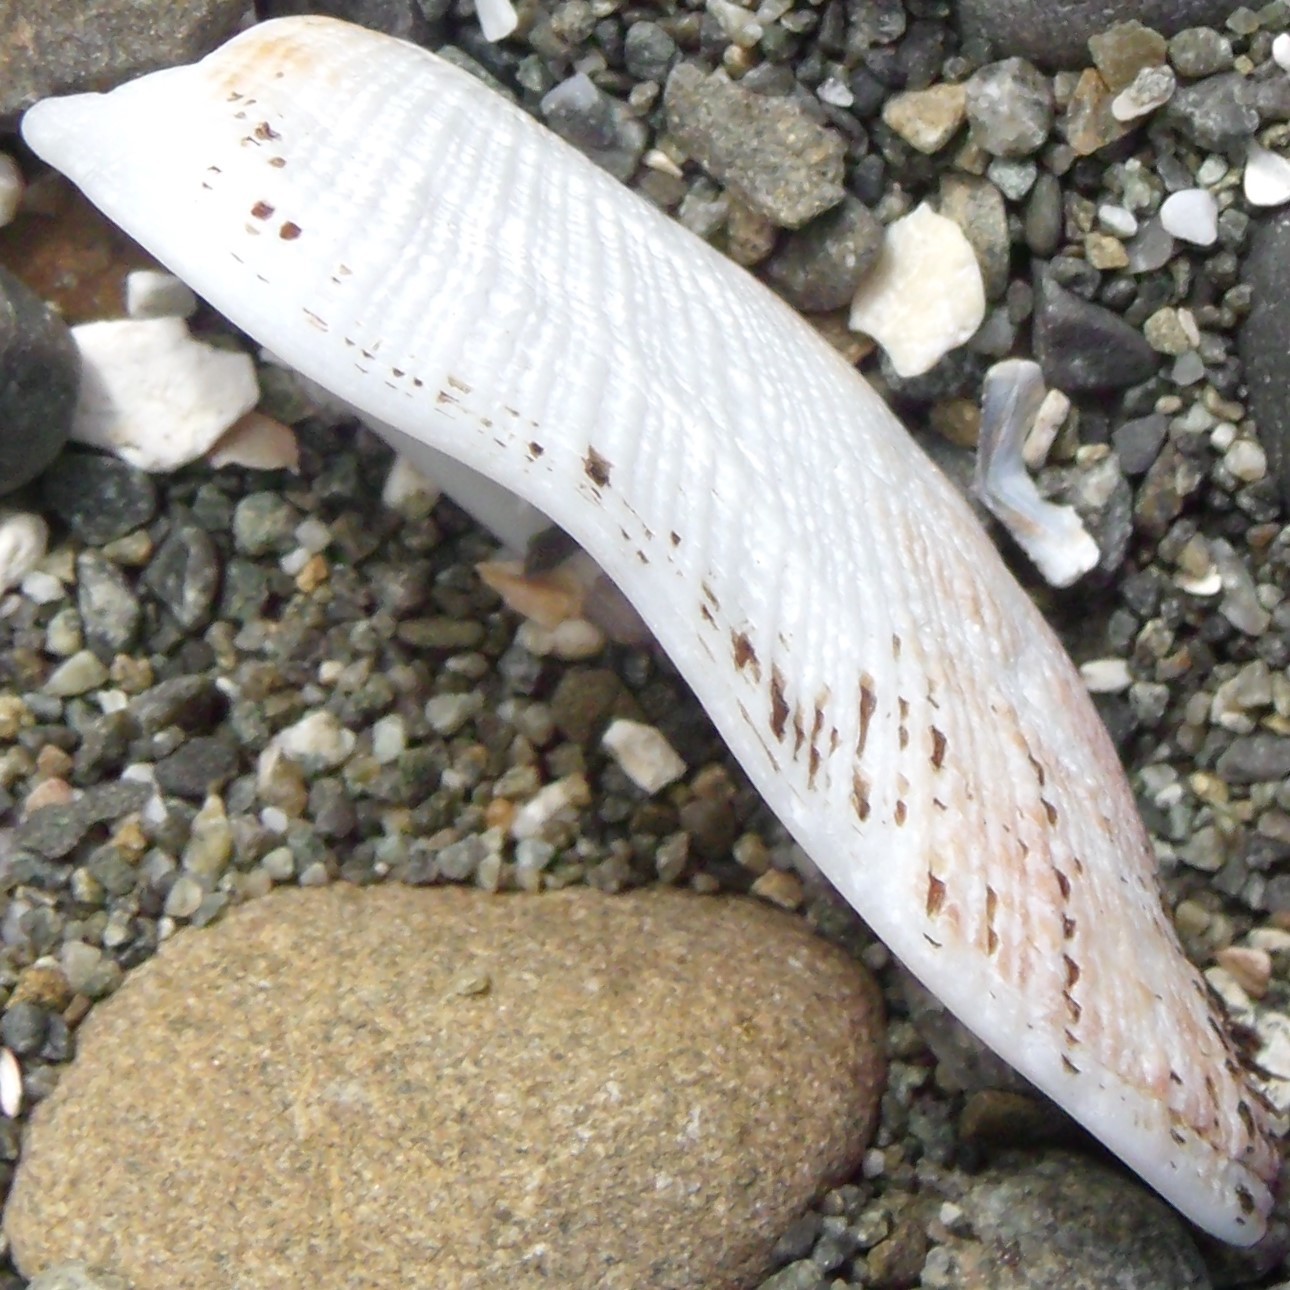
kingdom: Animalia
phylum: Mollusca
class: Bivalvia
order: Arcida
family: Arcidae
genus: Barbatia
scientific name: Barbatia novaezealandiae
